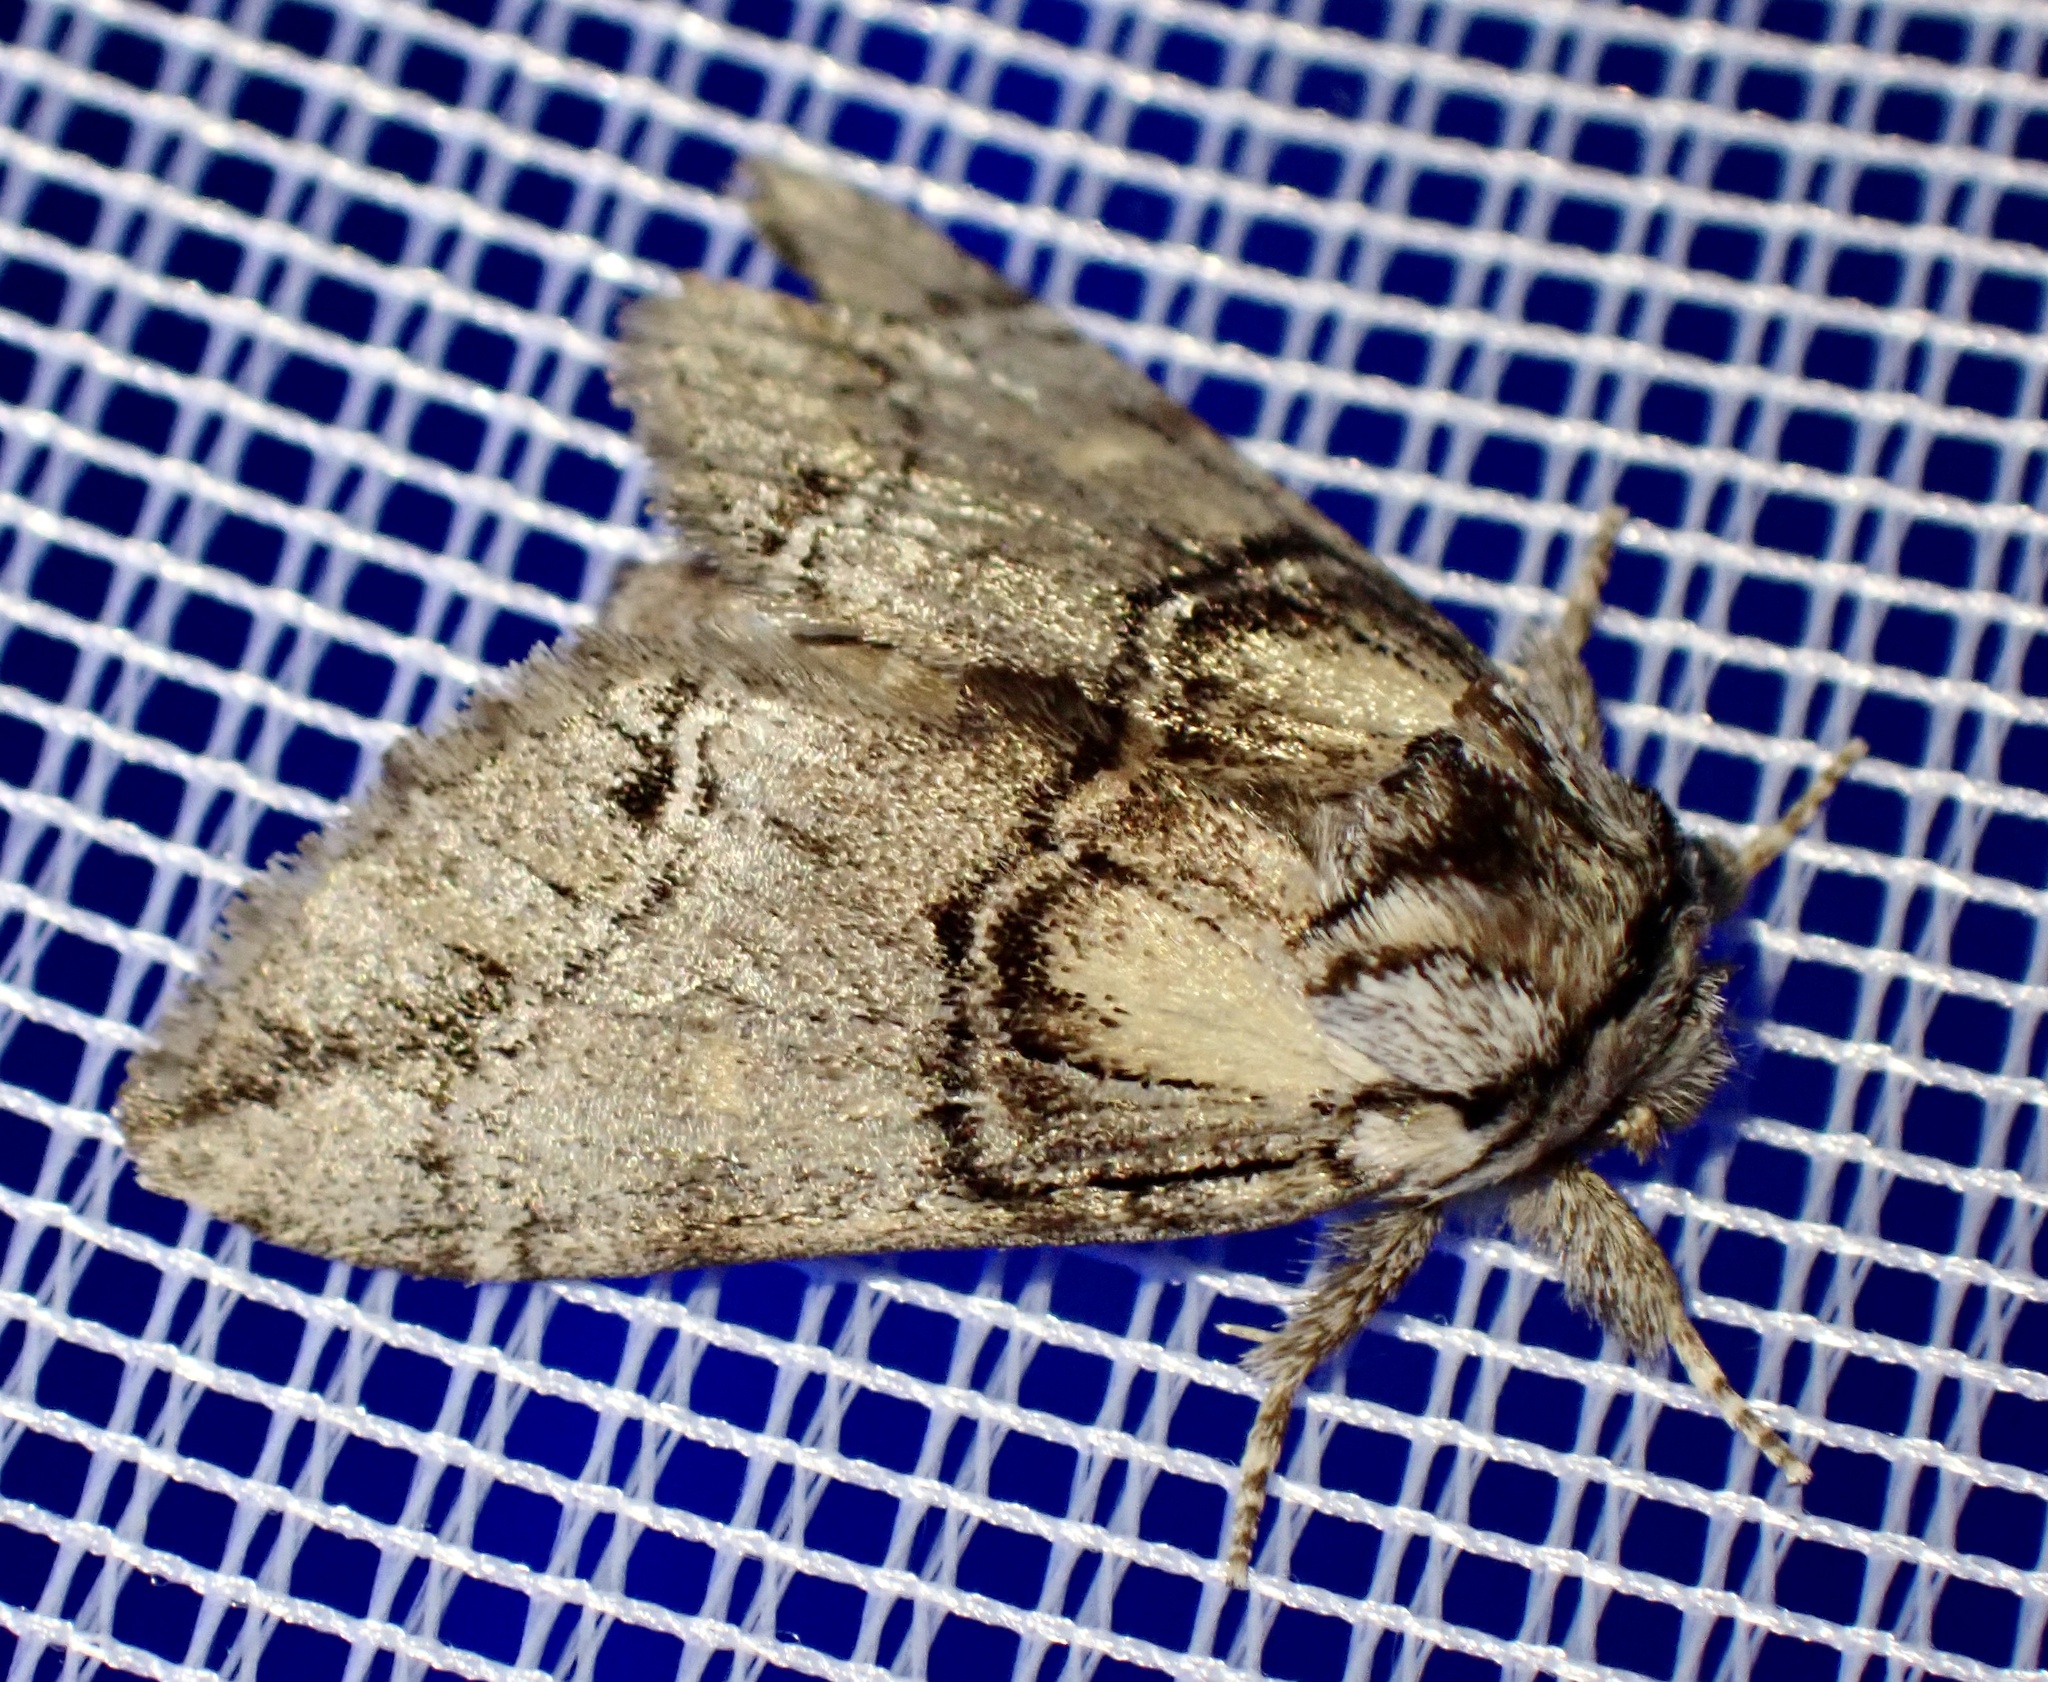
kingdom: Animalia
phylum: Arthropoda
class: Insecta
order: Lepidoptera
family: Notodontidae
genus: Drymonia
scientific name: Drymonia velitaris
